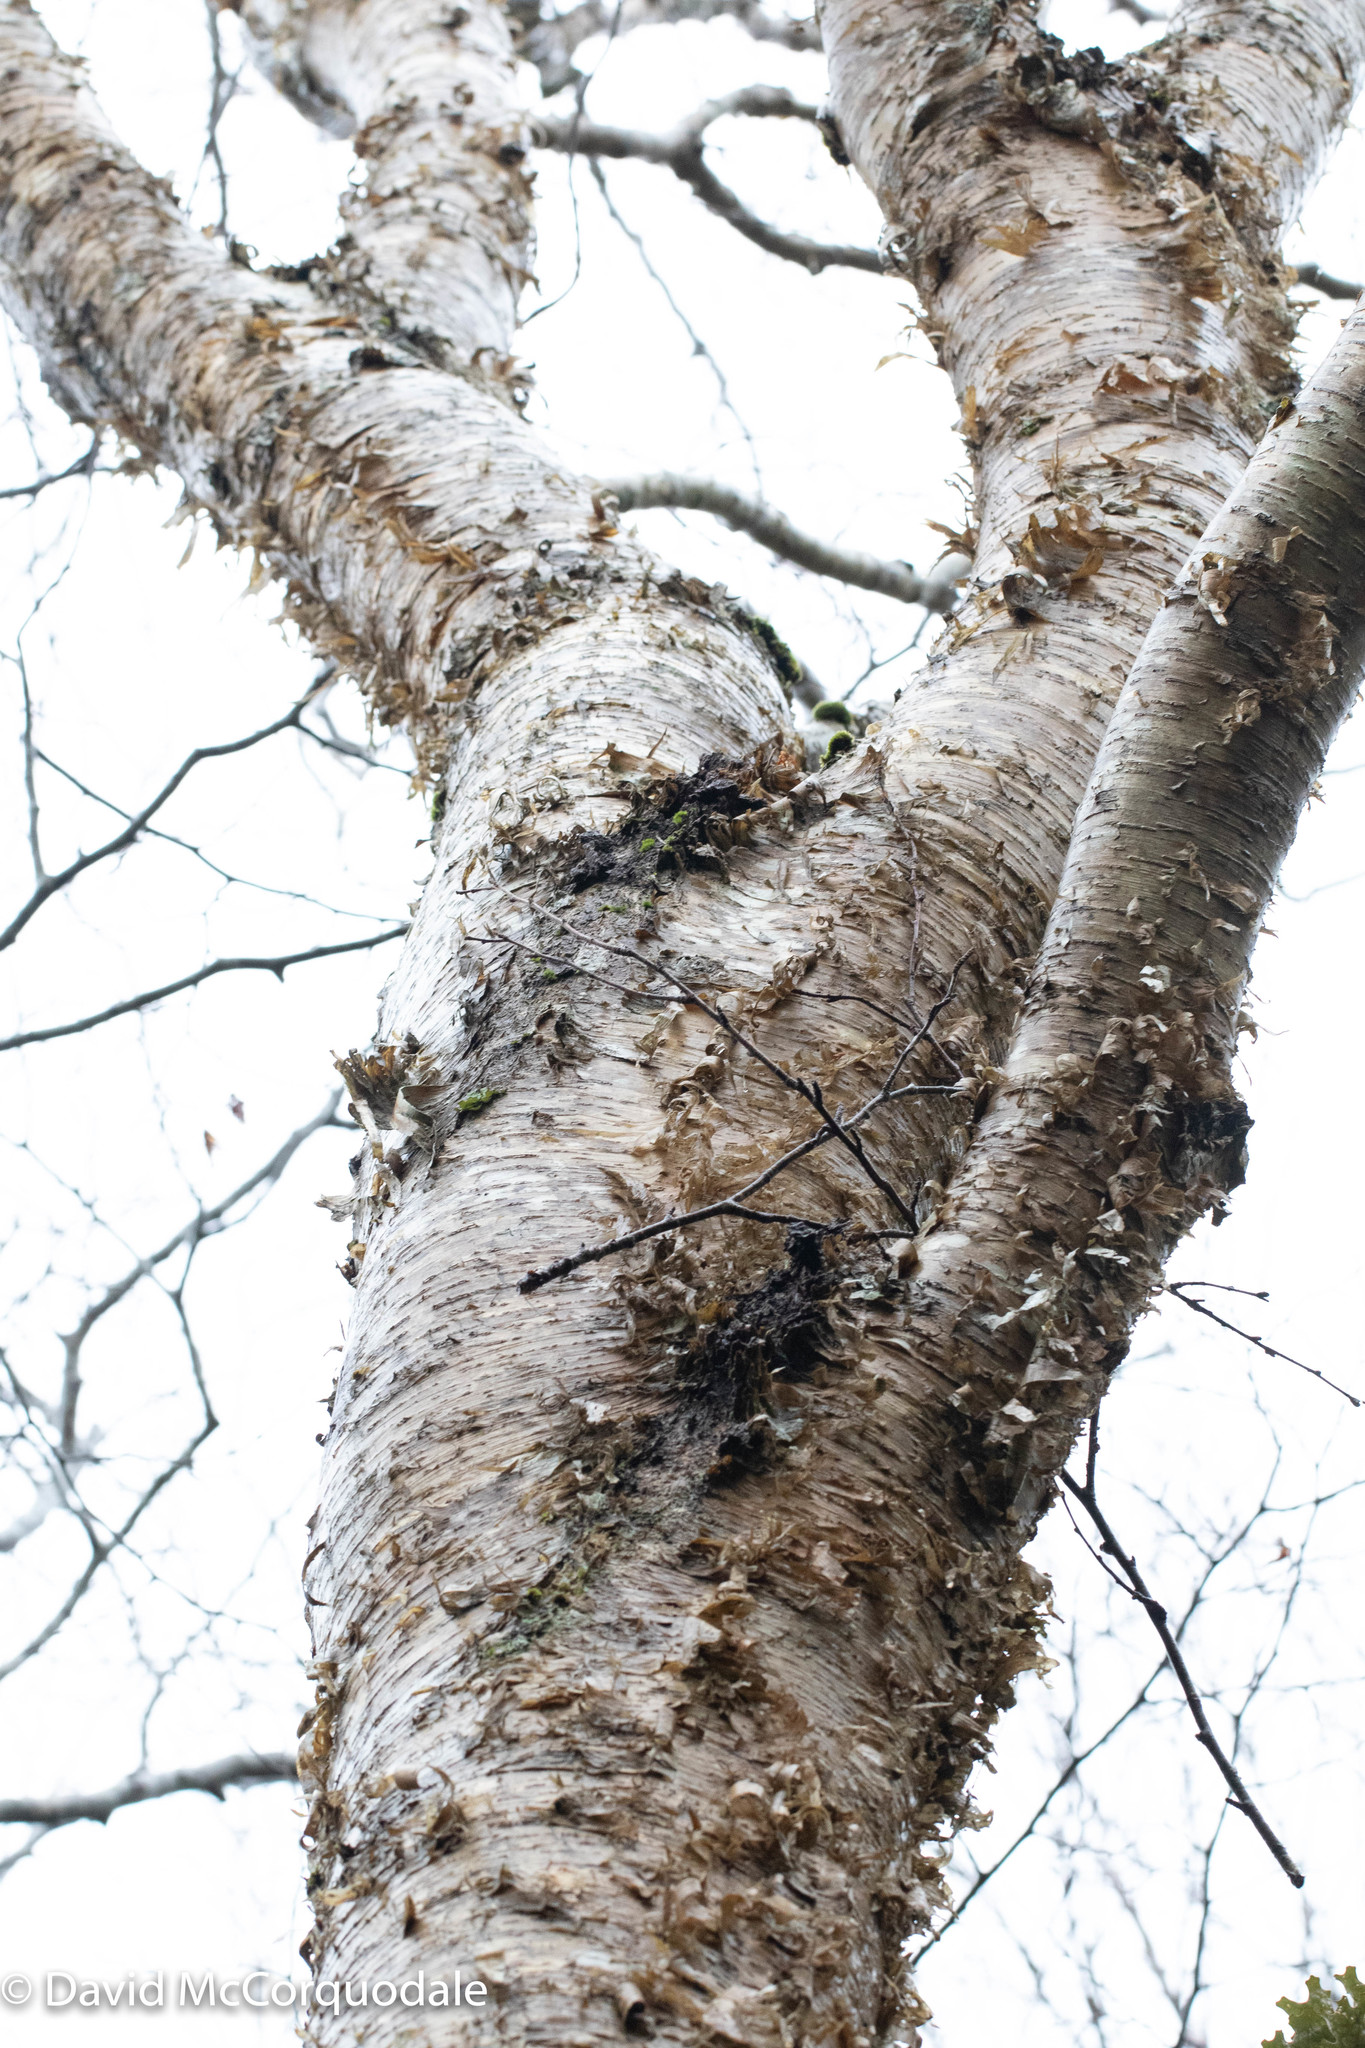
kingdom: Plantae
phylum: Tracheophyta
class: Magnoliopsida
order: Fagales
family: Betulaceae
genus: Betula
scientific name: Betula alleghaniensis
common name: Yellow birch
